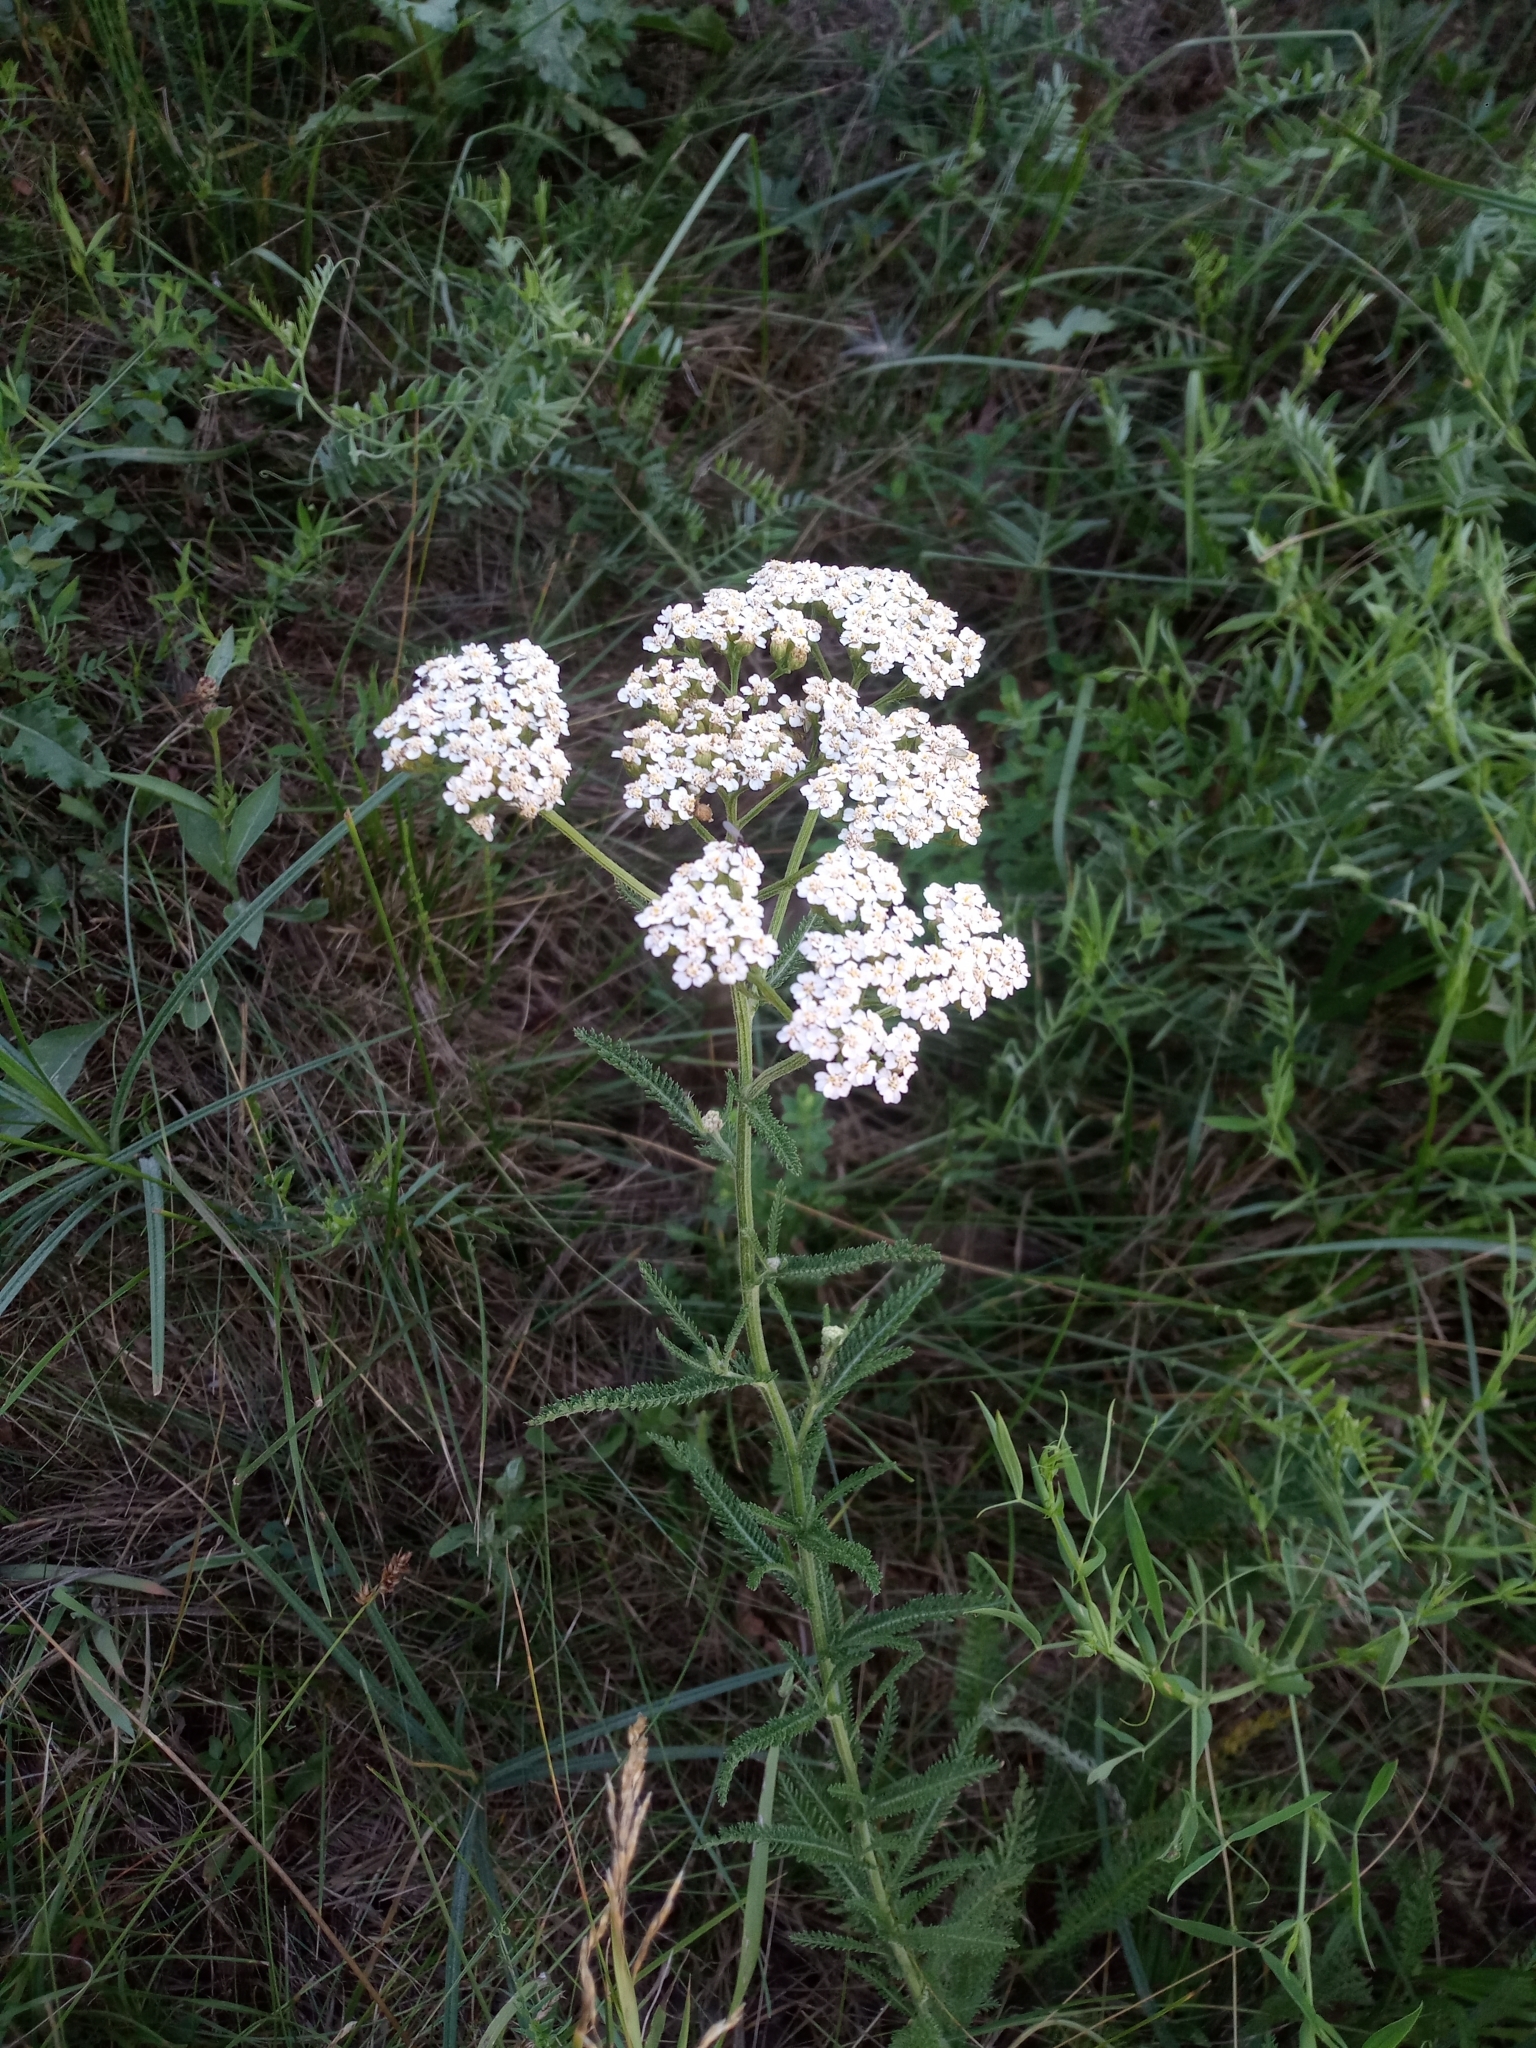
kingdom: Plantae
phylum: Tracheophyta
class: Magnoliopsida
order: Asterales
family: Asteraceae
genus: Achillea
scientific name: Achillea millefolium
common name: Yarrow
